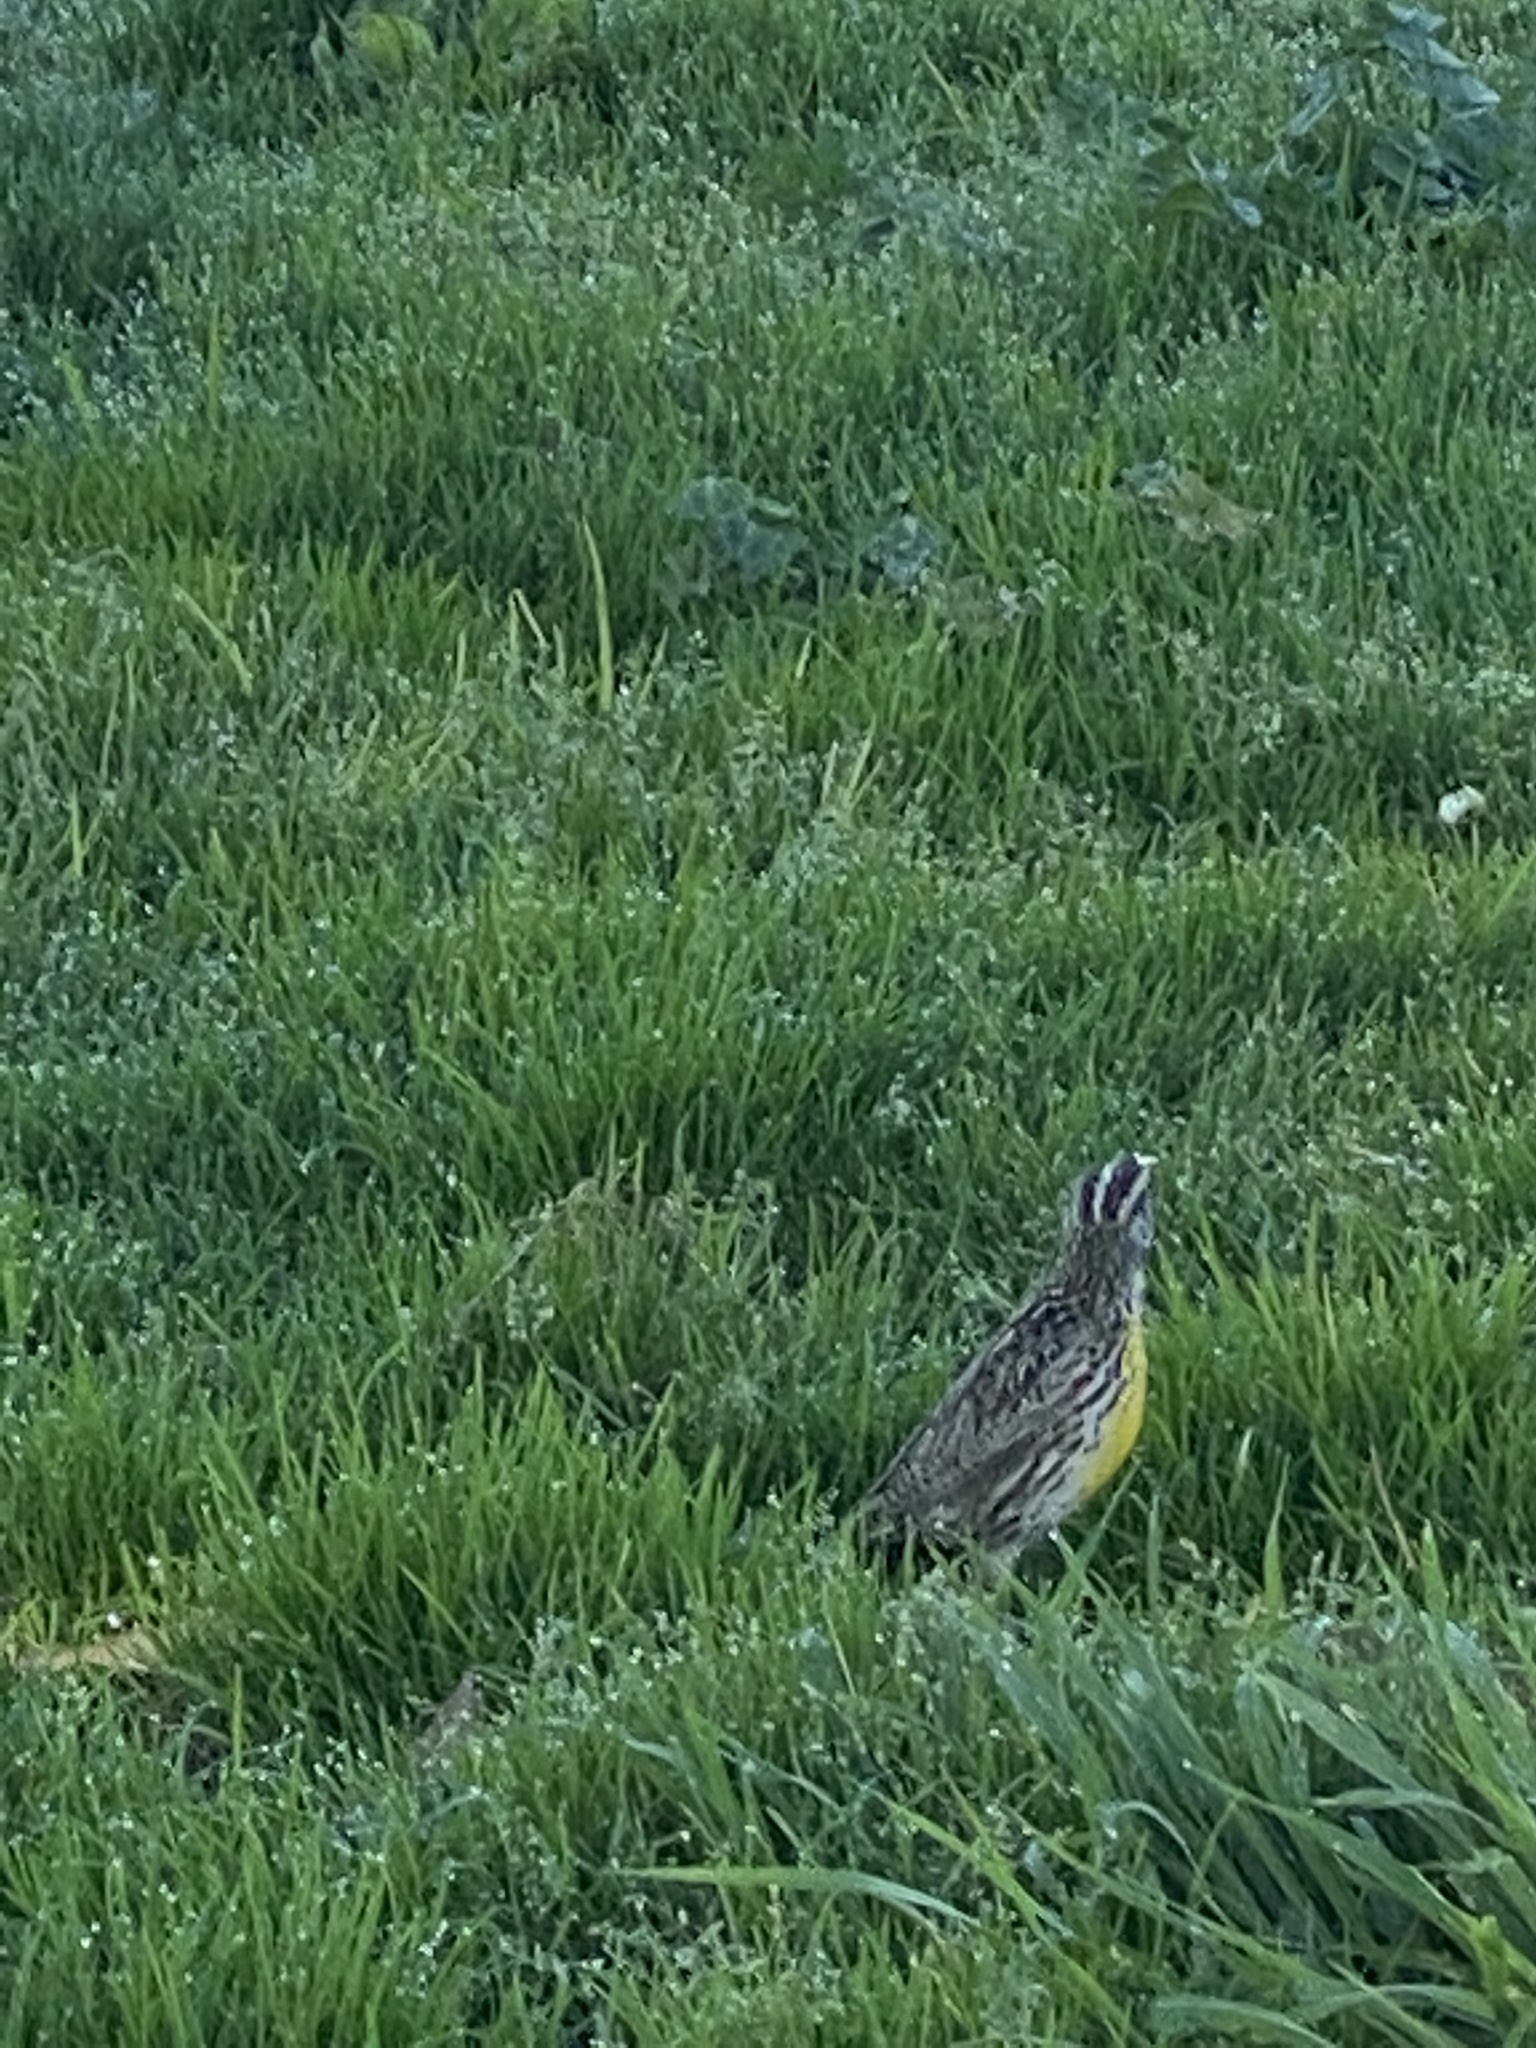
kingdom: Animalia
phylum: Chordata
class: Aves
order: Passeriformes
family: Icteridae
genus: Sturnella
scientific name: Sturnella neglecta
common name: Western meadowlark
